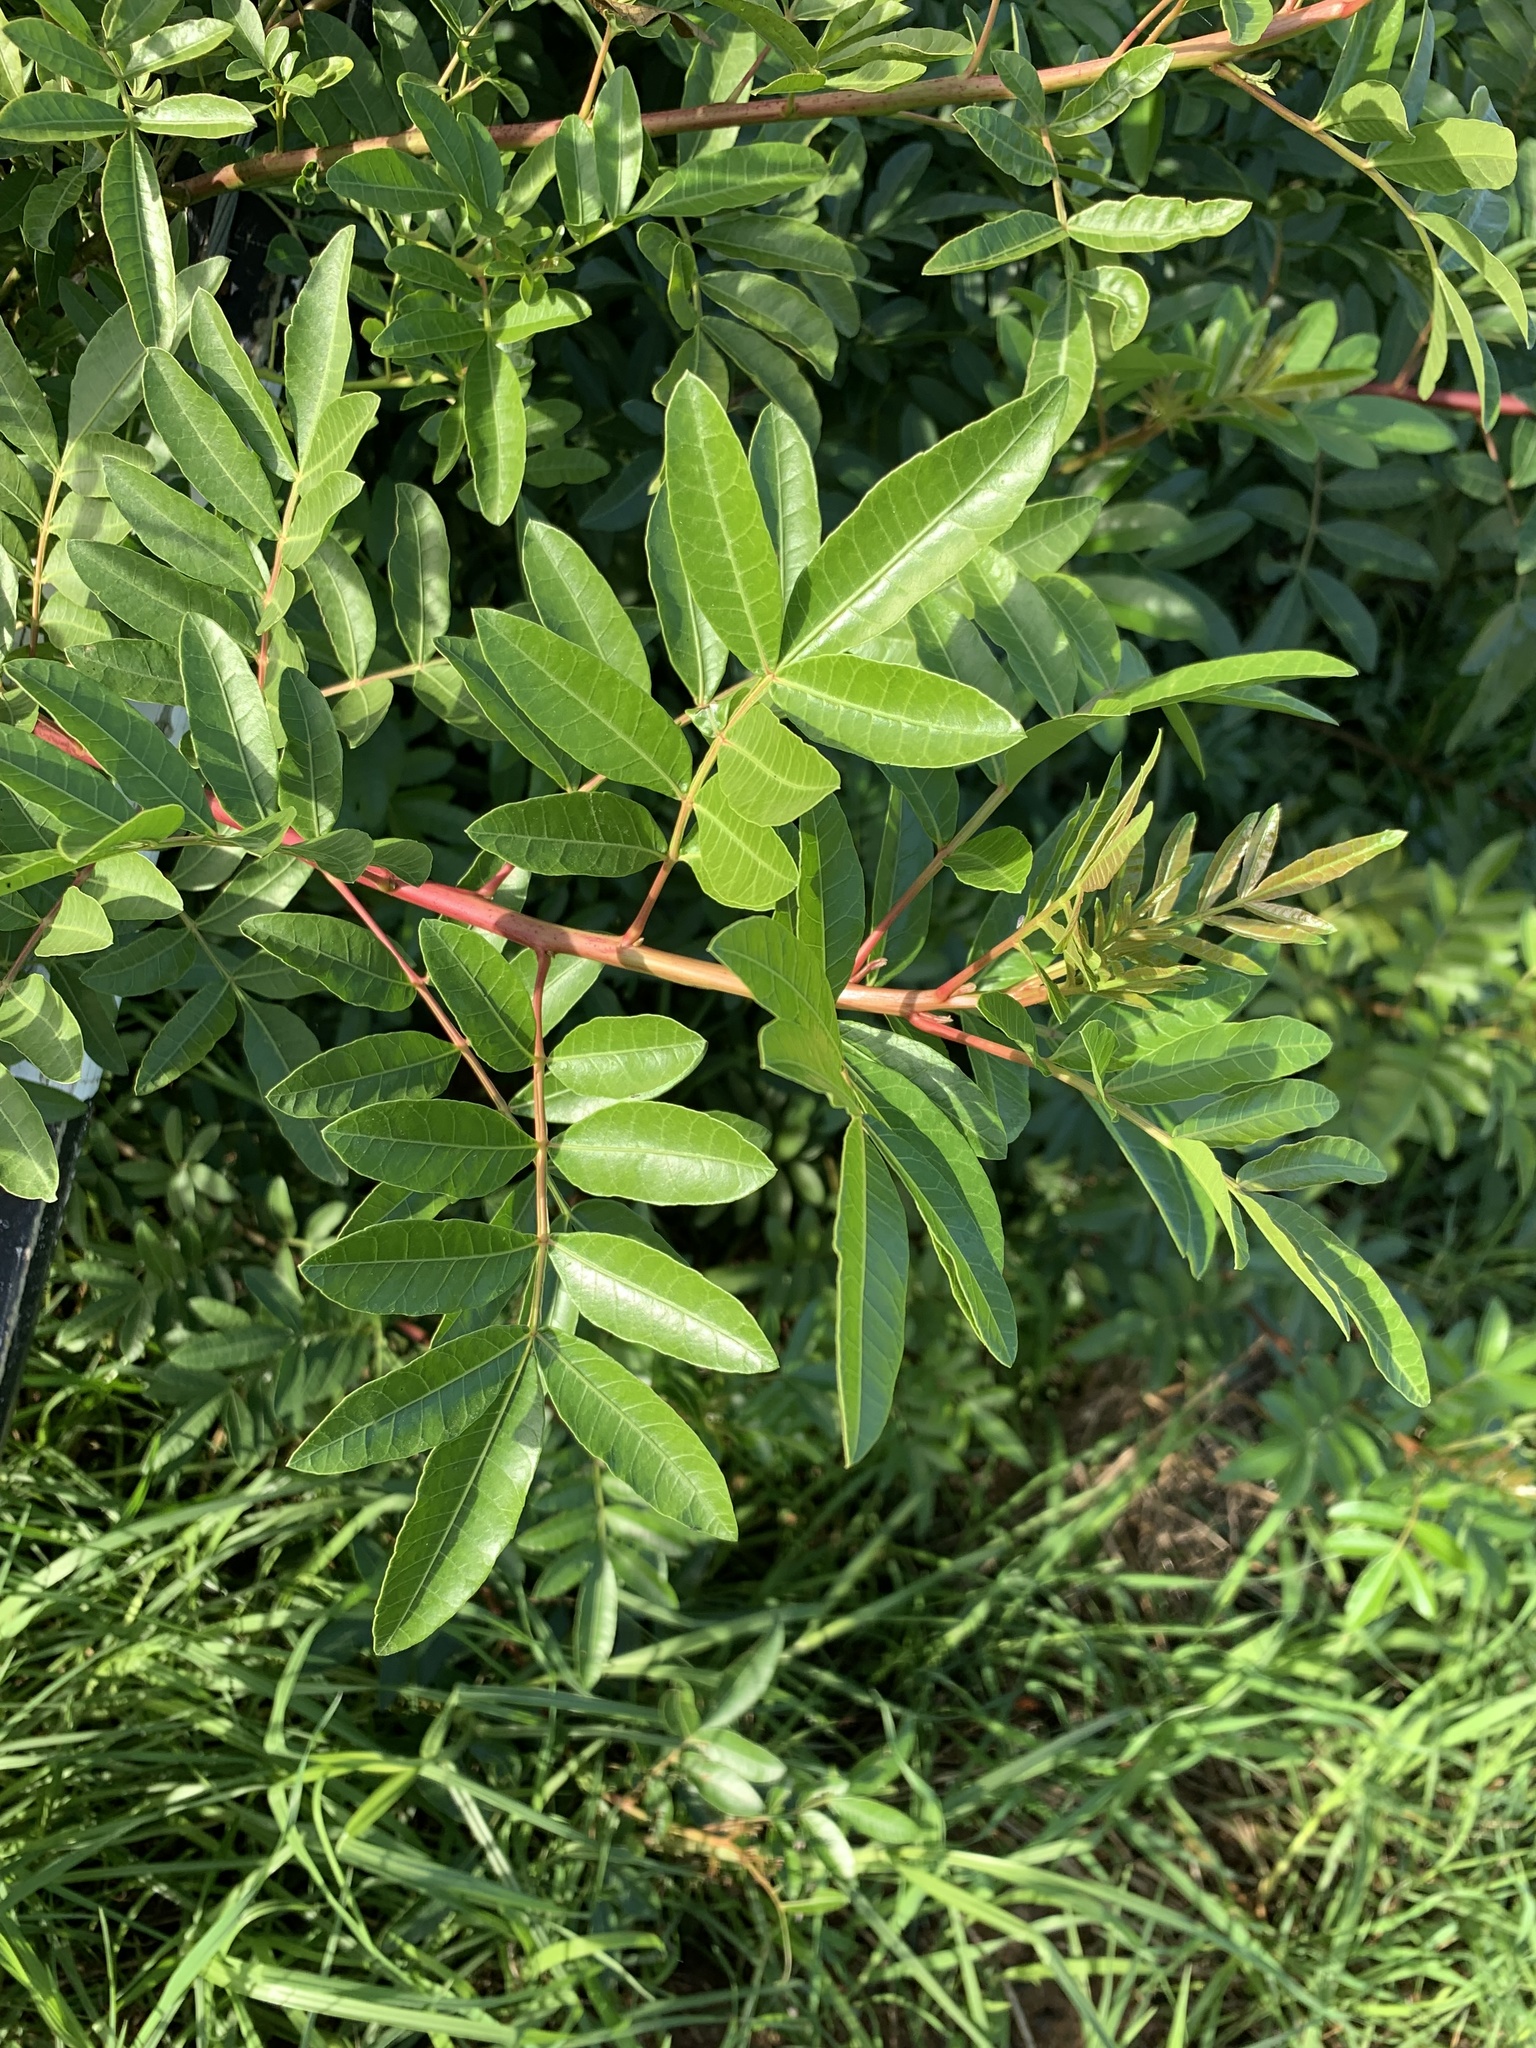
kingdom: Plantae
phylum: Tracheophyta
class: Magnoliopsida
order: Sapindales
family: Anacardiaceae
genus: Schinus
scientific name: Schinus terebinthifolia
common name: Brazilian peppertree
